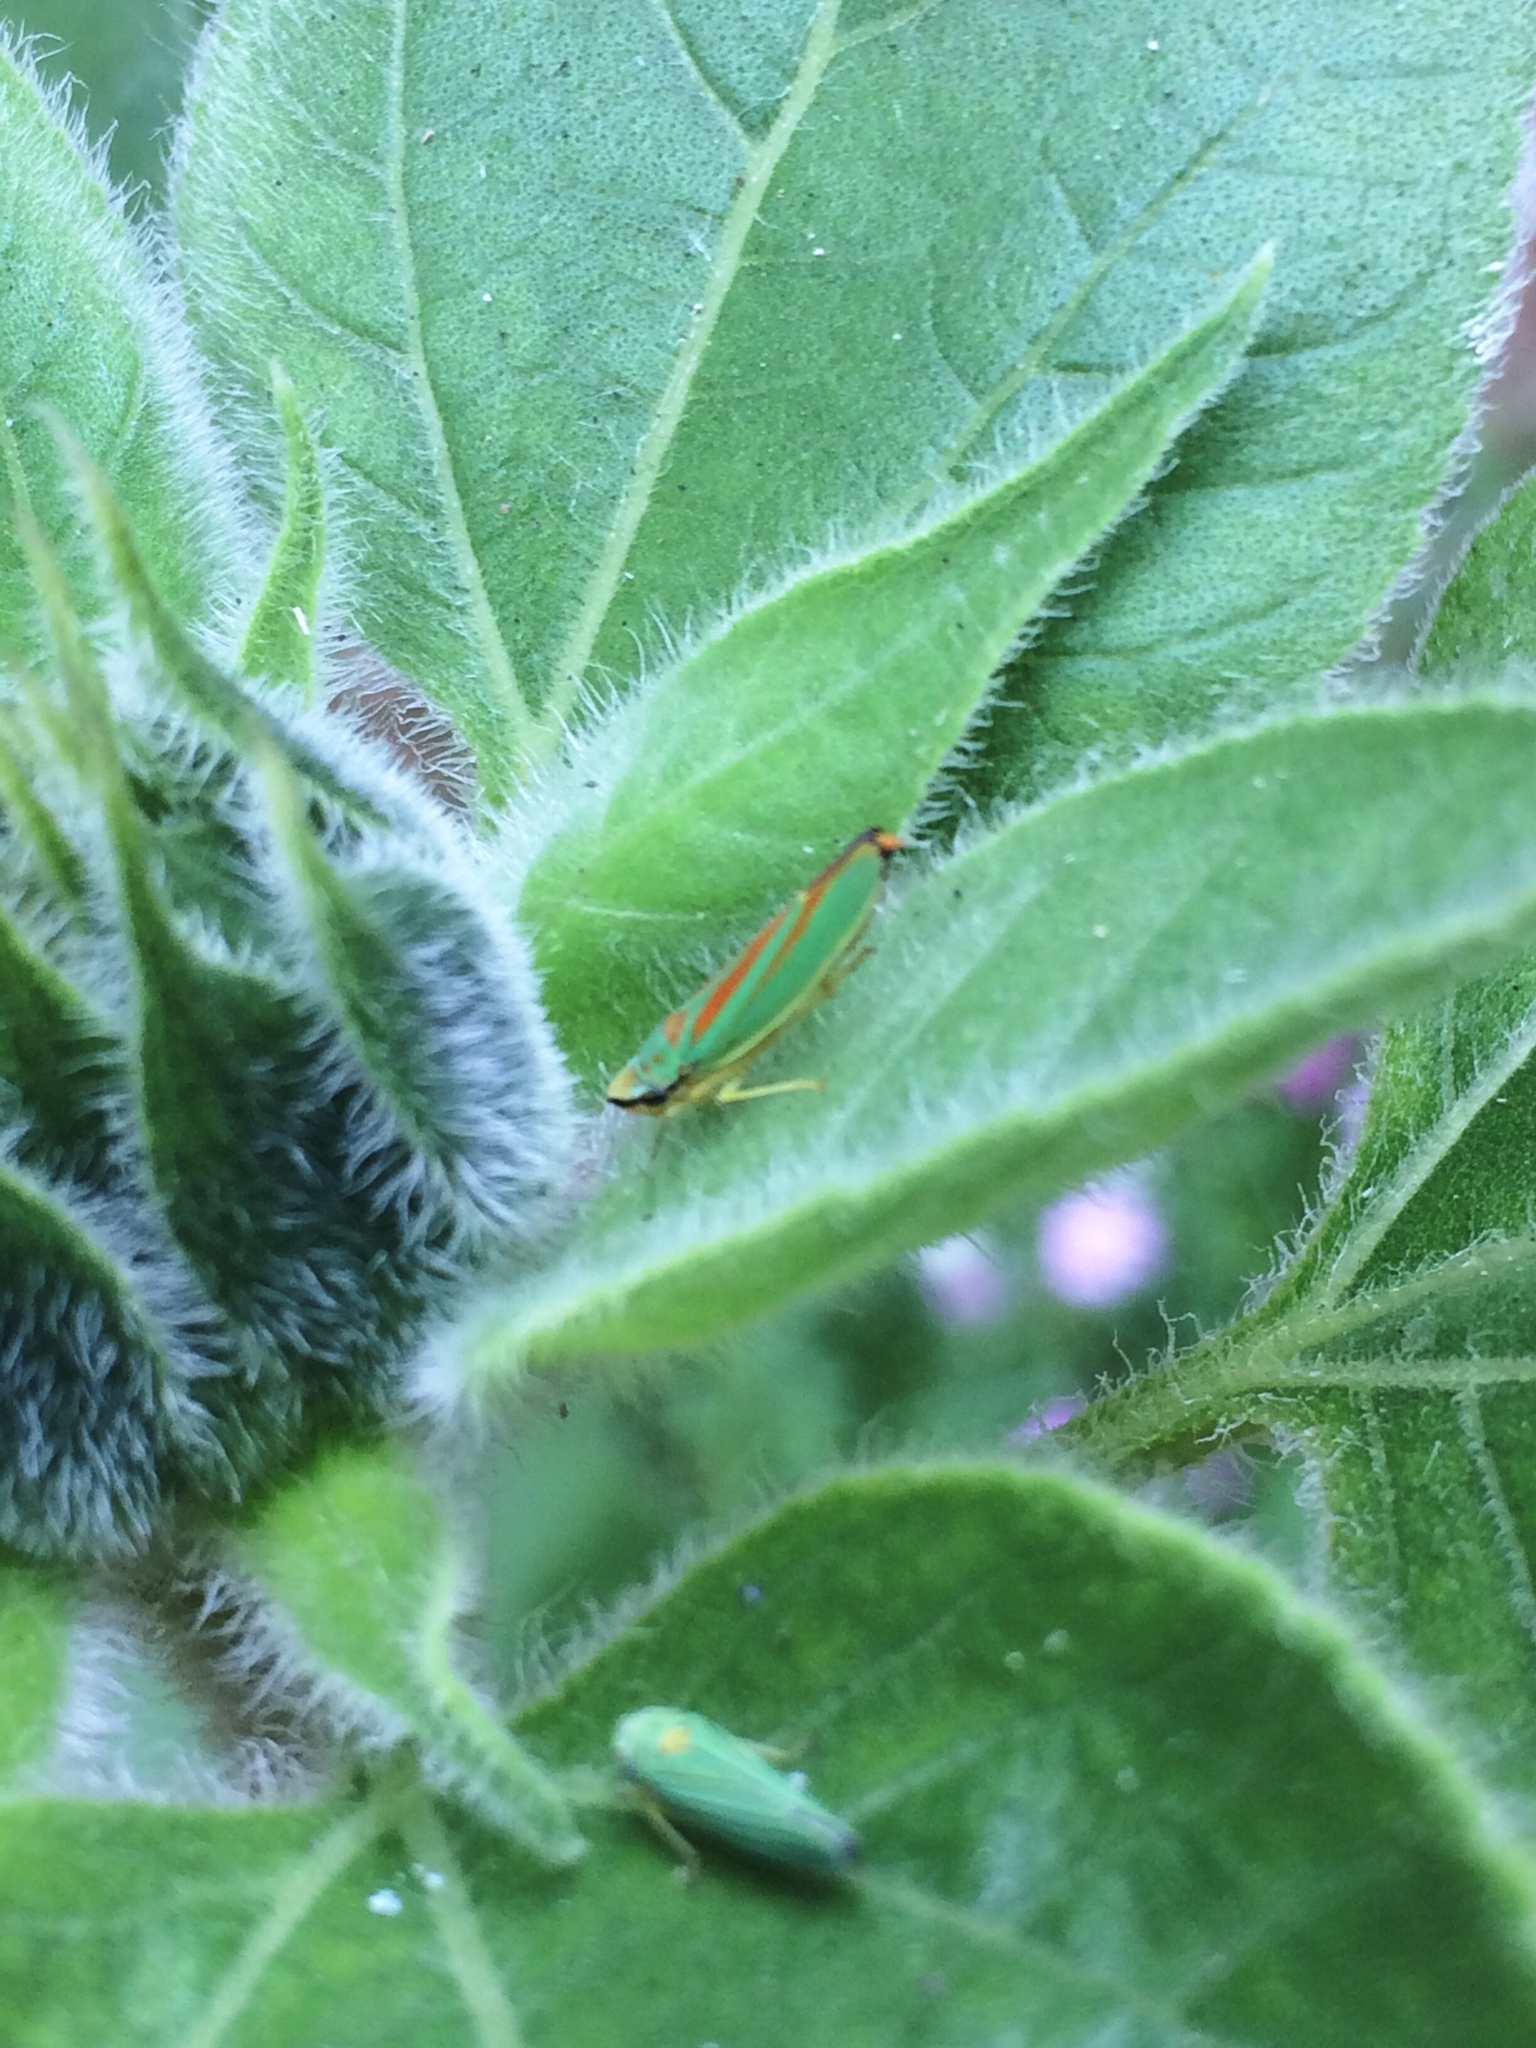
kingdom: Animalia
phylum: Arthropoda
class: Insecta
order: Hemiptera
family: Cicadellidae
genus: Graphocephala
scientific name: Graphocephala fennahi
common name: Rhododendron leafhopper
